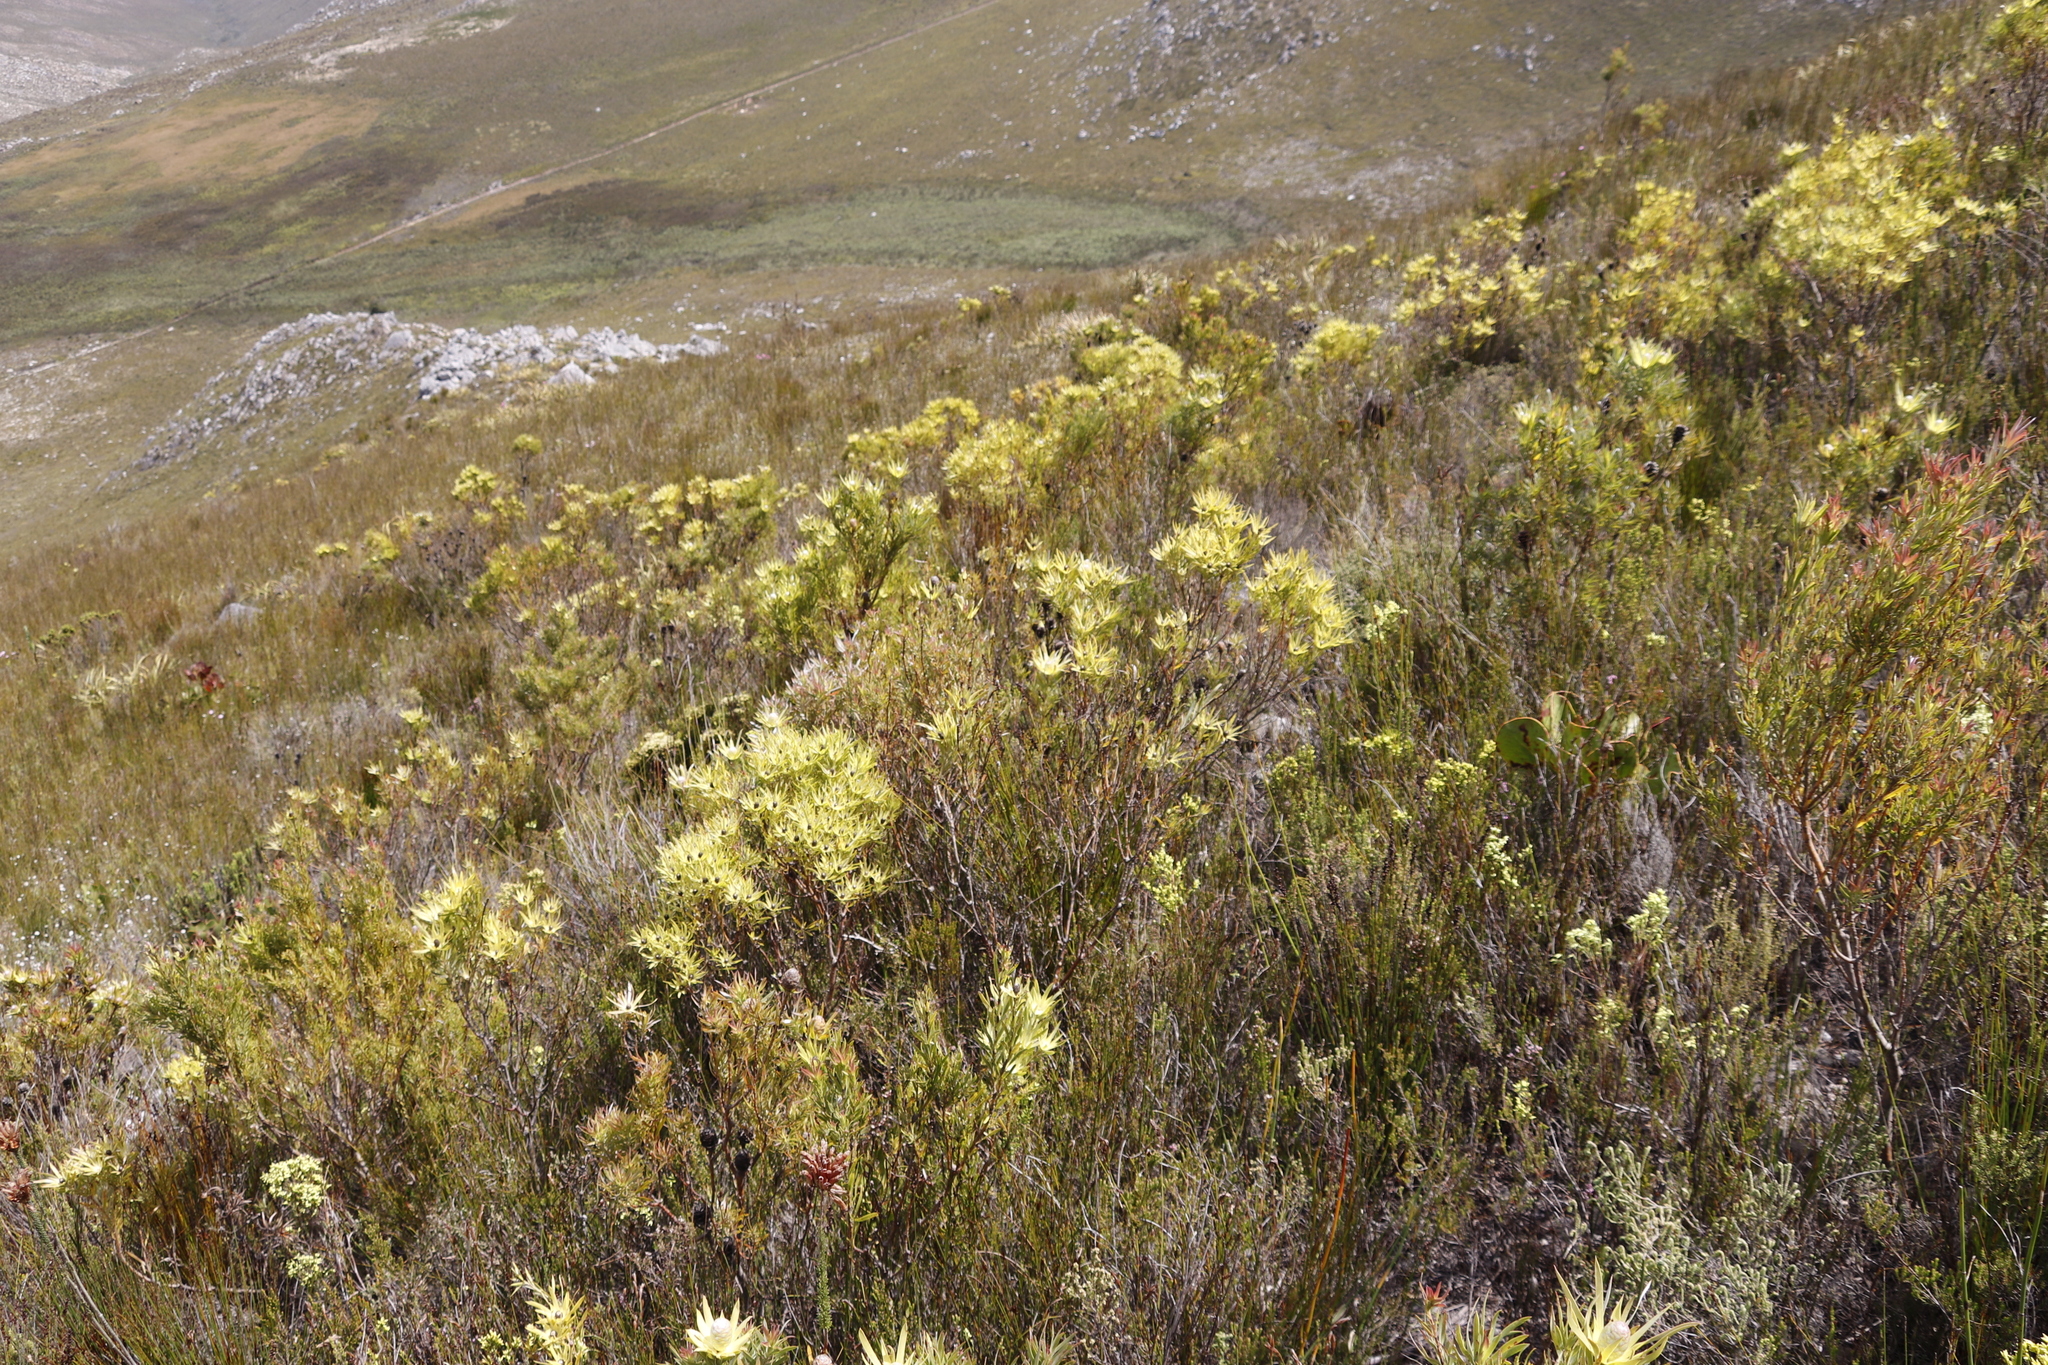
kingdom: Plantae
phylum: Tracheophyta
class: Magnoliopsida
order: Proteales
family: Proteaceae
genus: Leucadendron
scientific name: Leucadendron xanthoconus
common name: Sickle-leaf conebush
